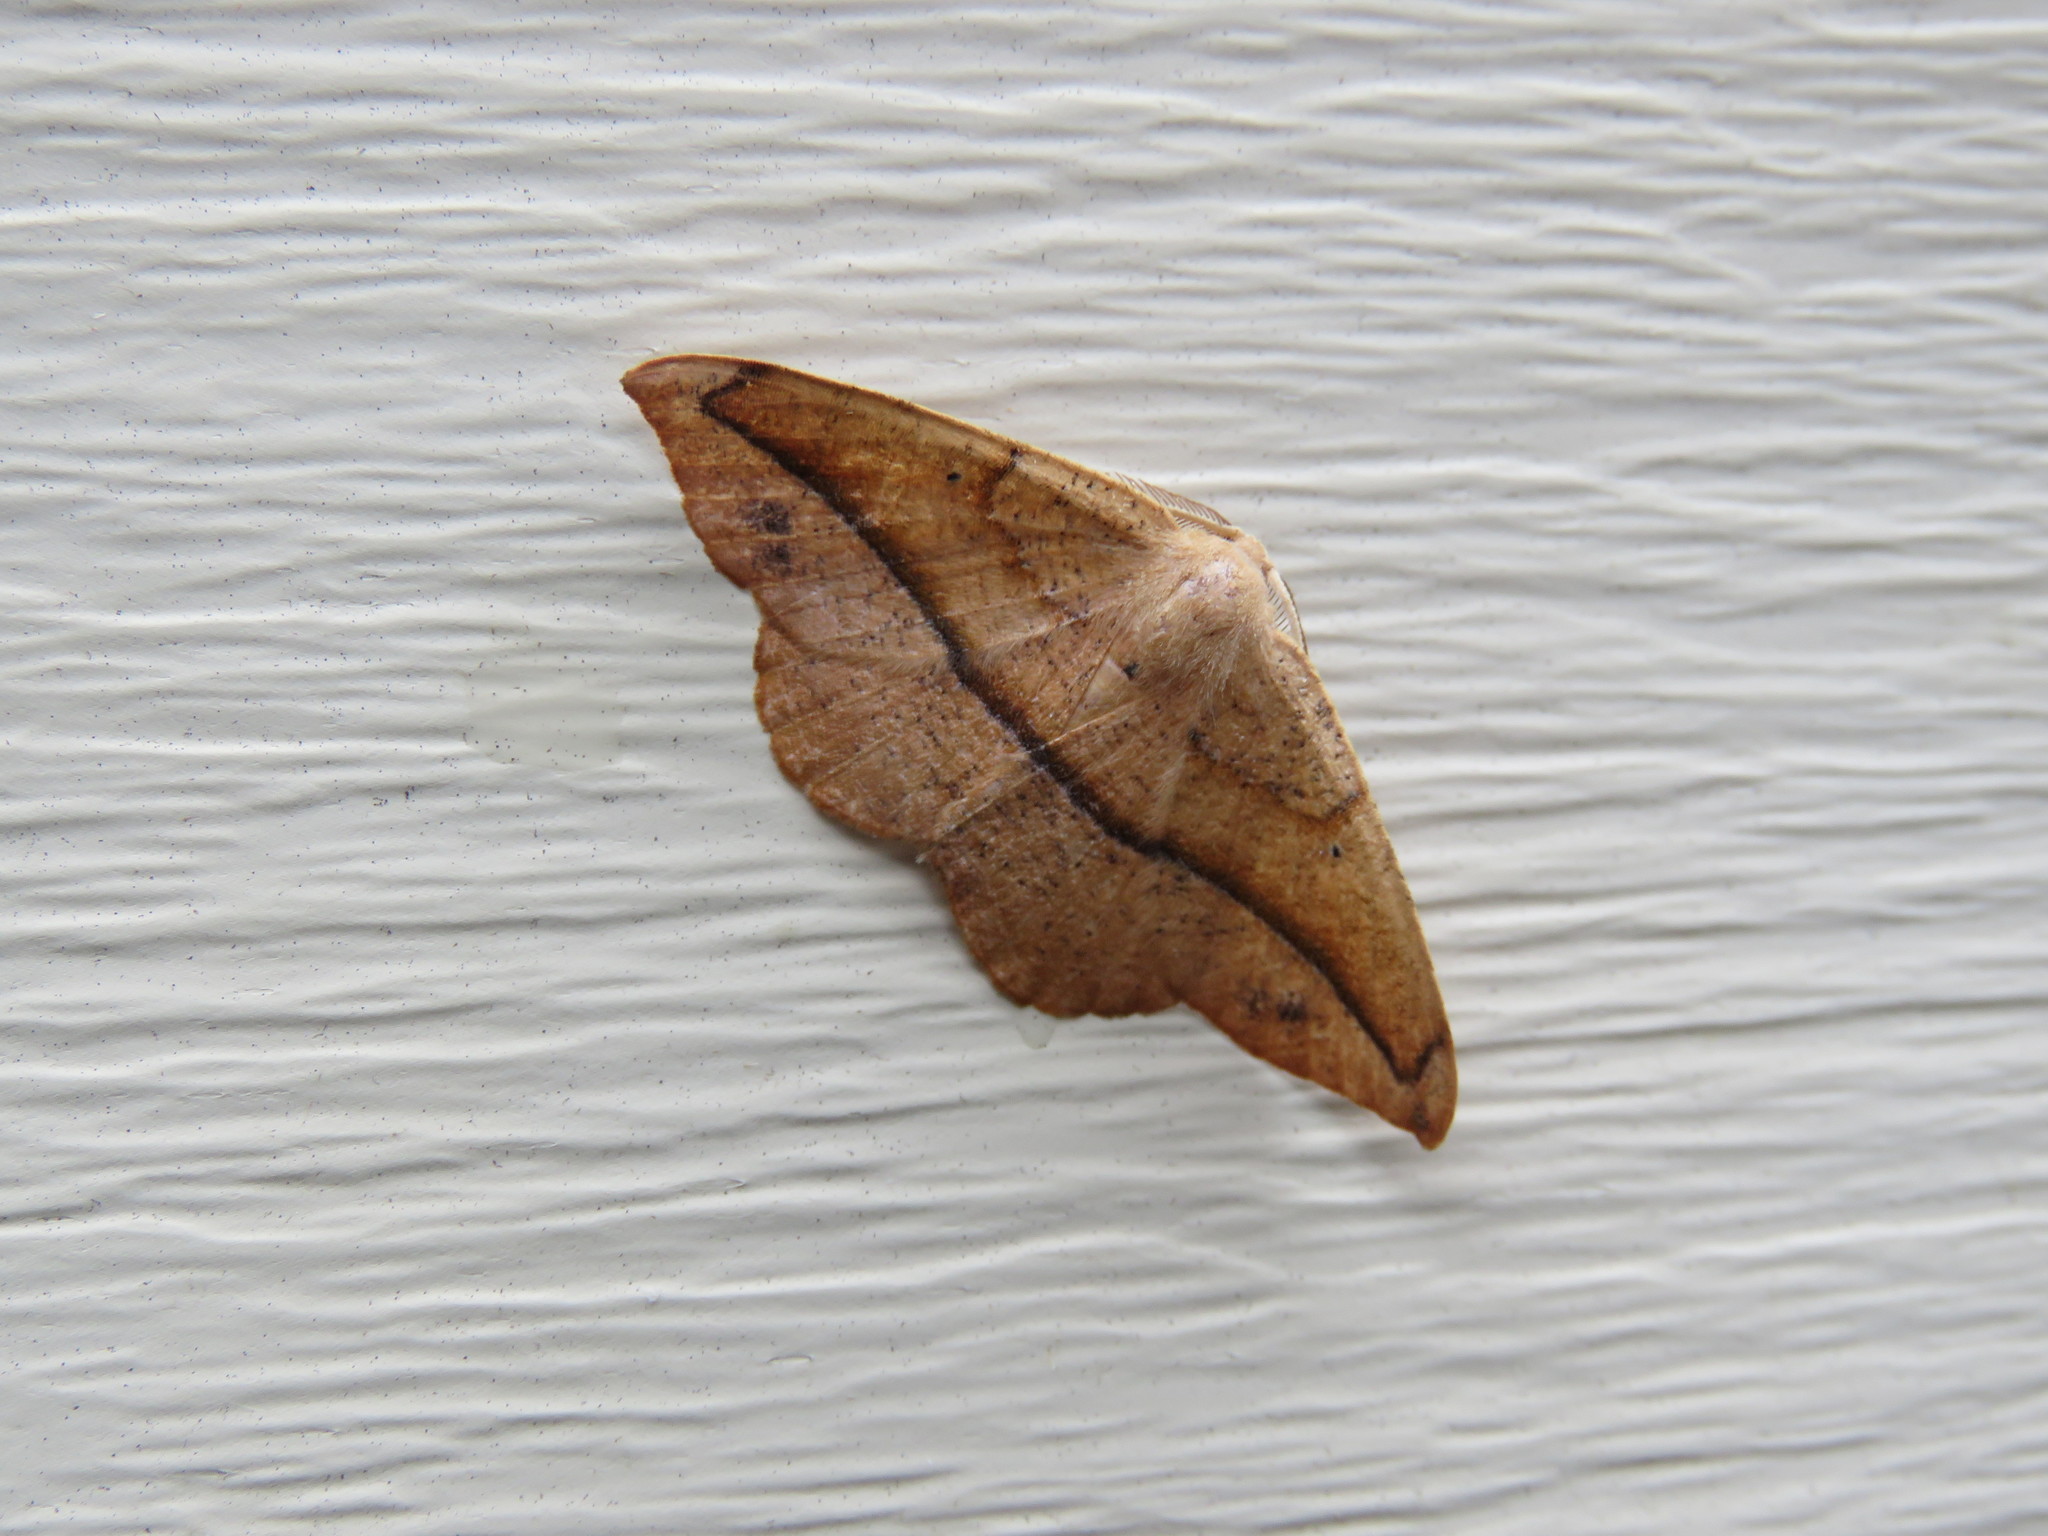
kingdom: Animalia
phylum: Arthropoda
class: Insecta
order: Lepidoptera
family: Geometridae
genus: Patalene
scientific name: Patalene olyzonaria
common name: Juniper geometer moth
